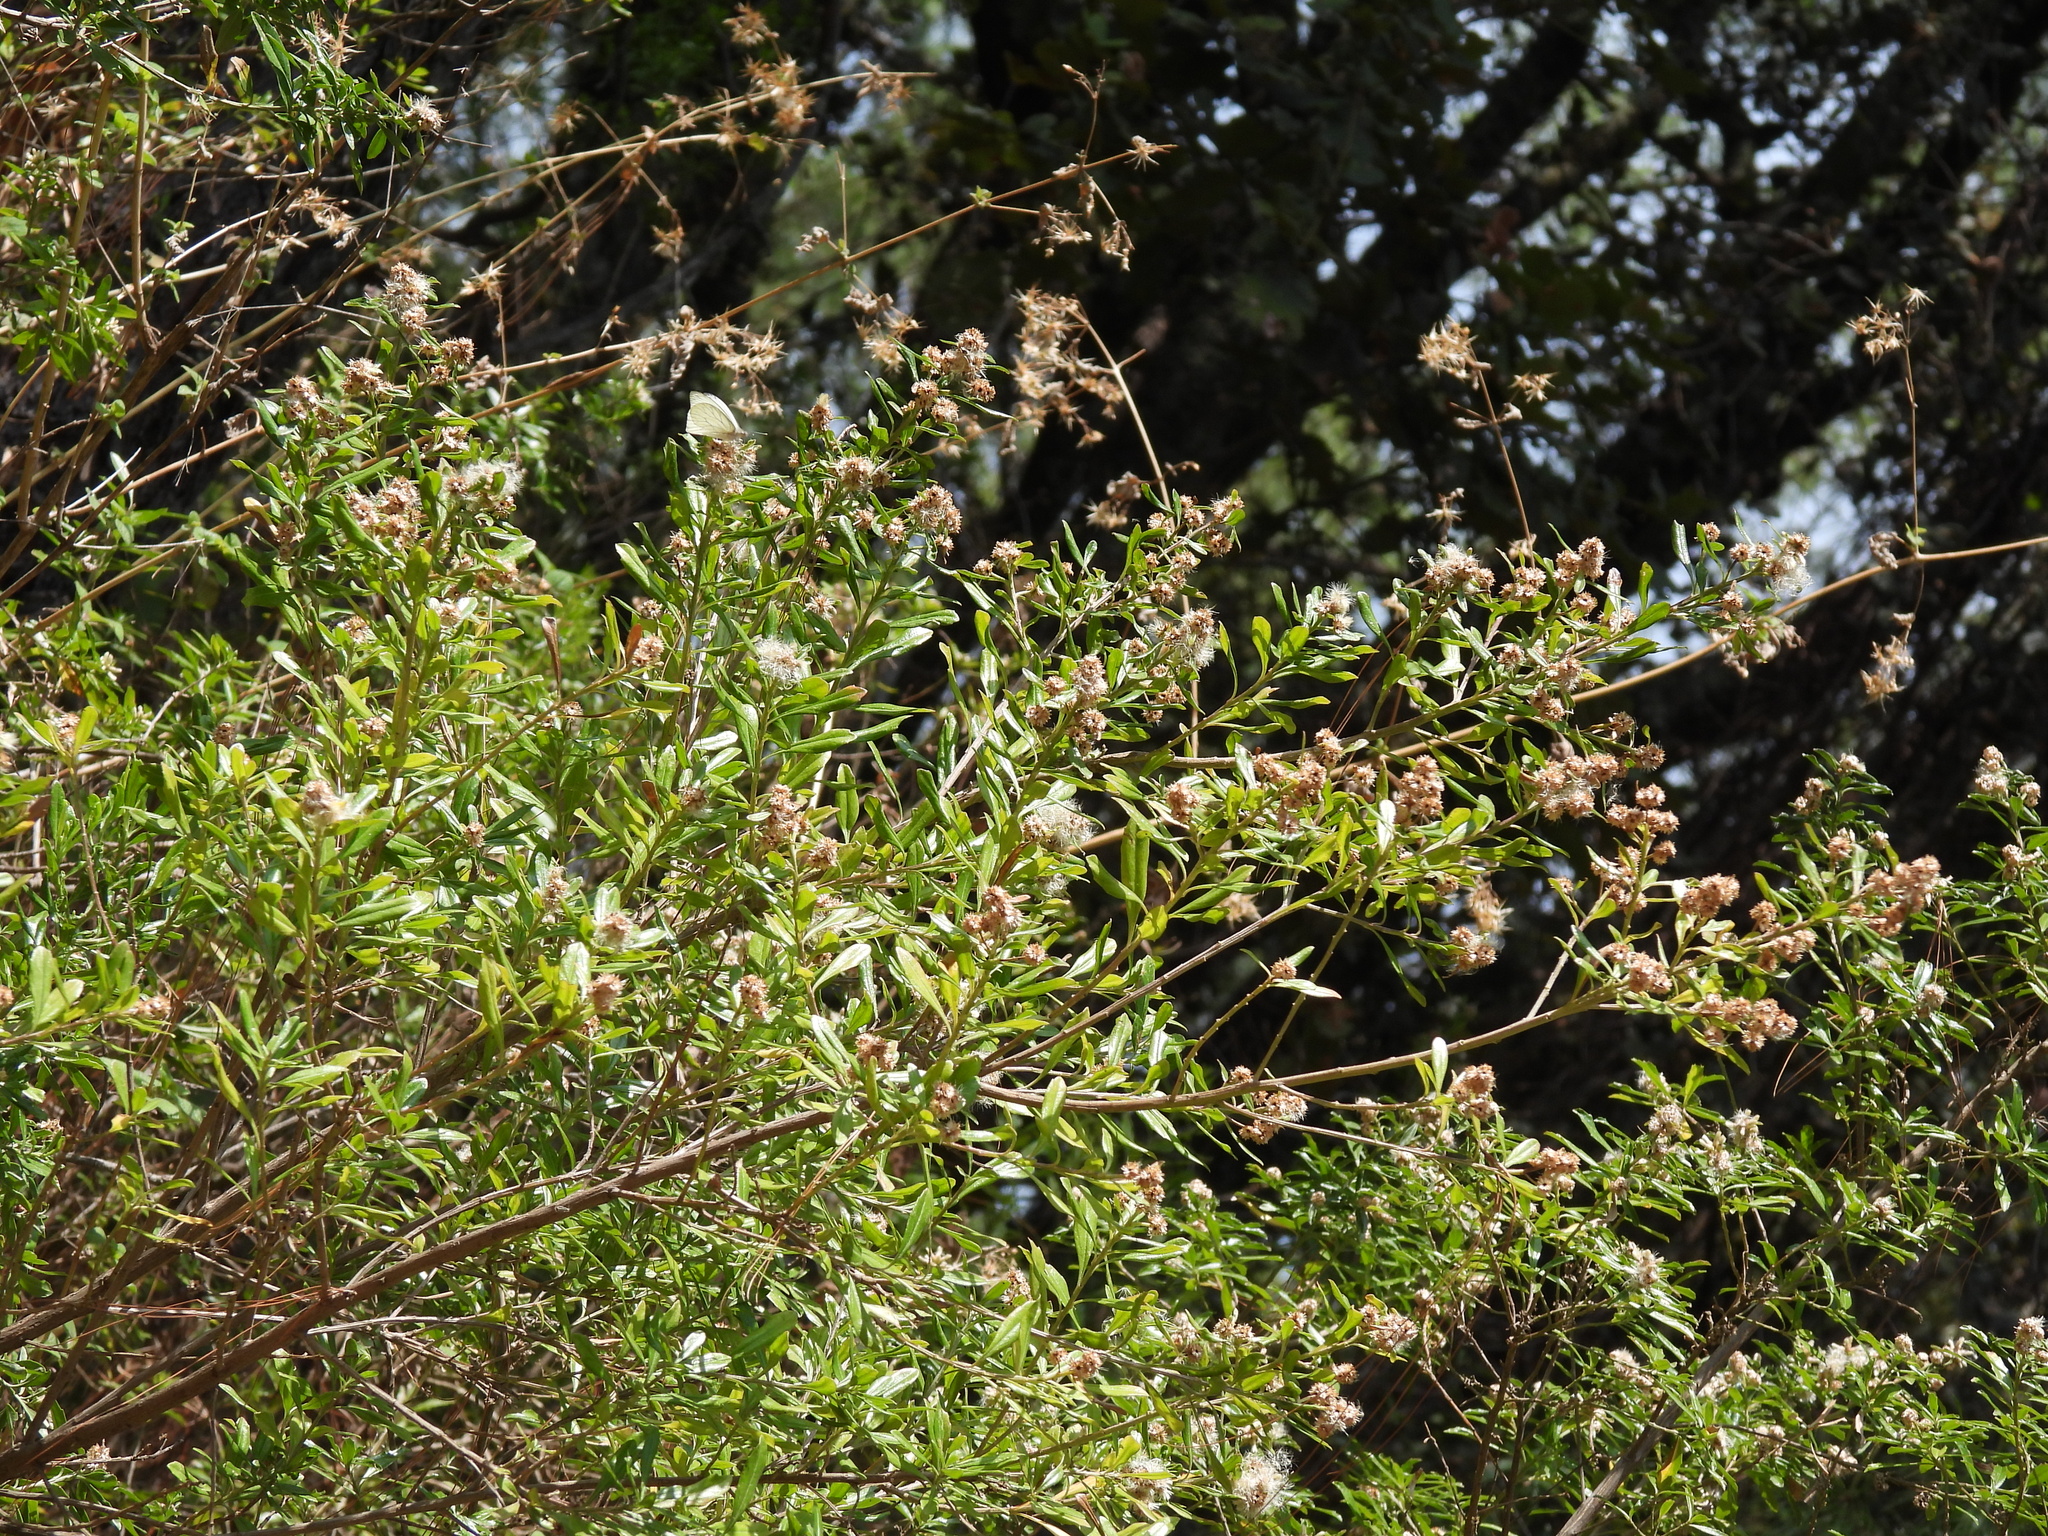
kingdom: Plantae
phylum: Tracheophyta
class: Magnoliopsida
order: Asterales
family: Asteraceae
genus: Baccharis
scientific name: Baccharis heterophylla
